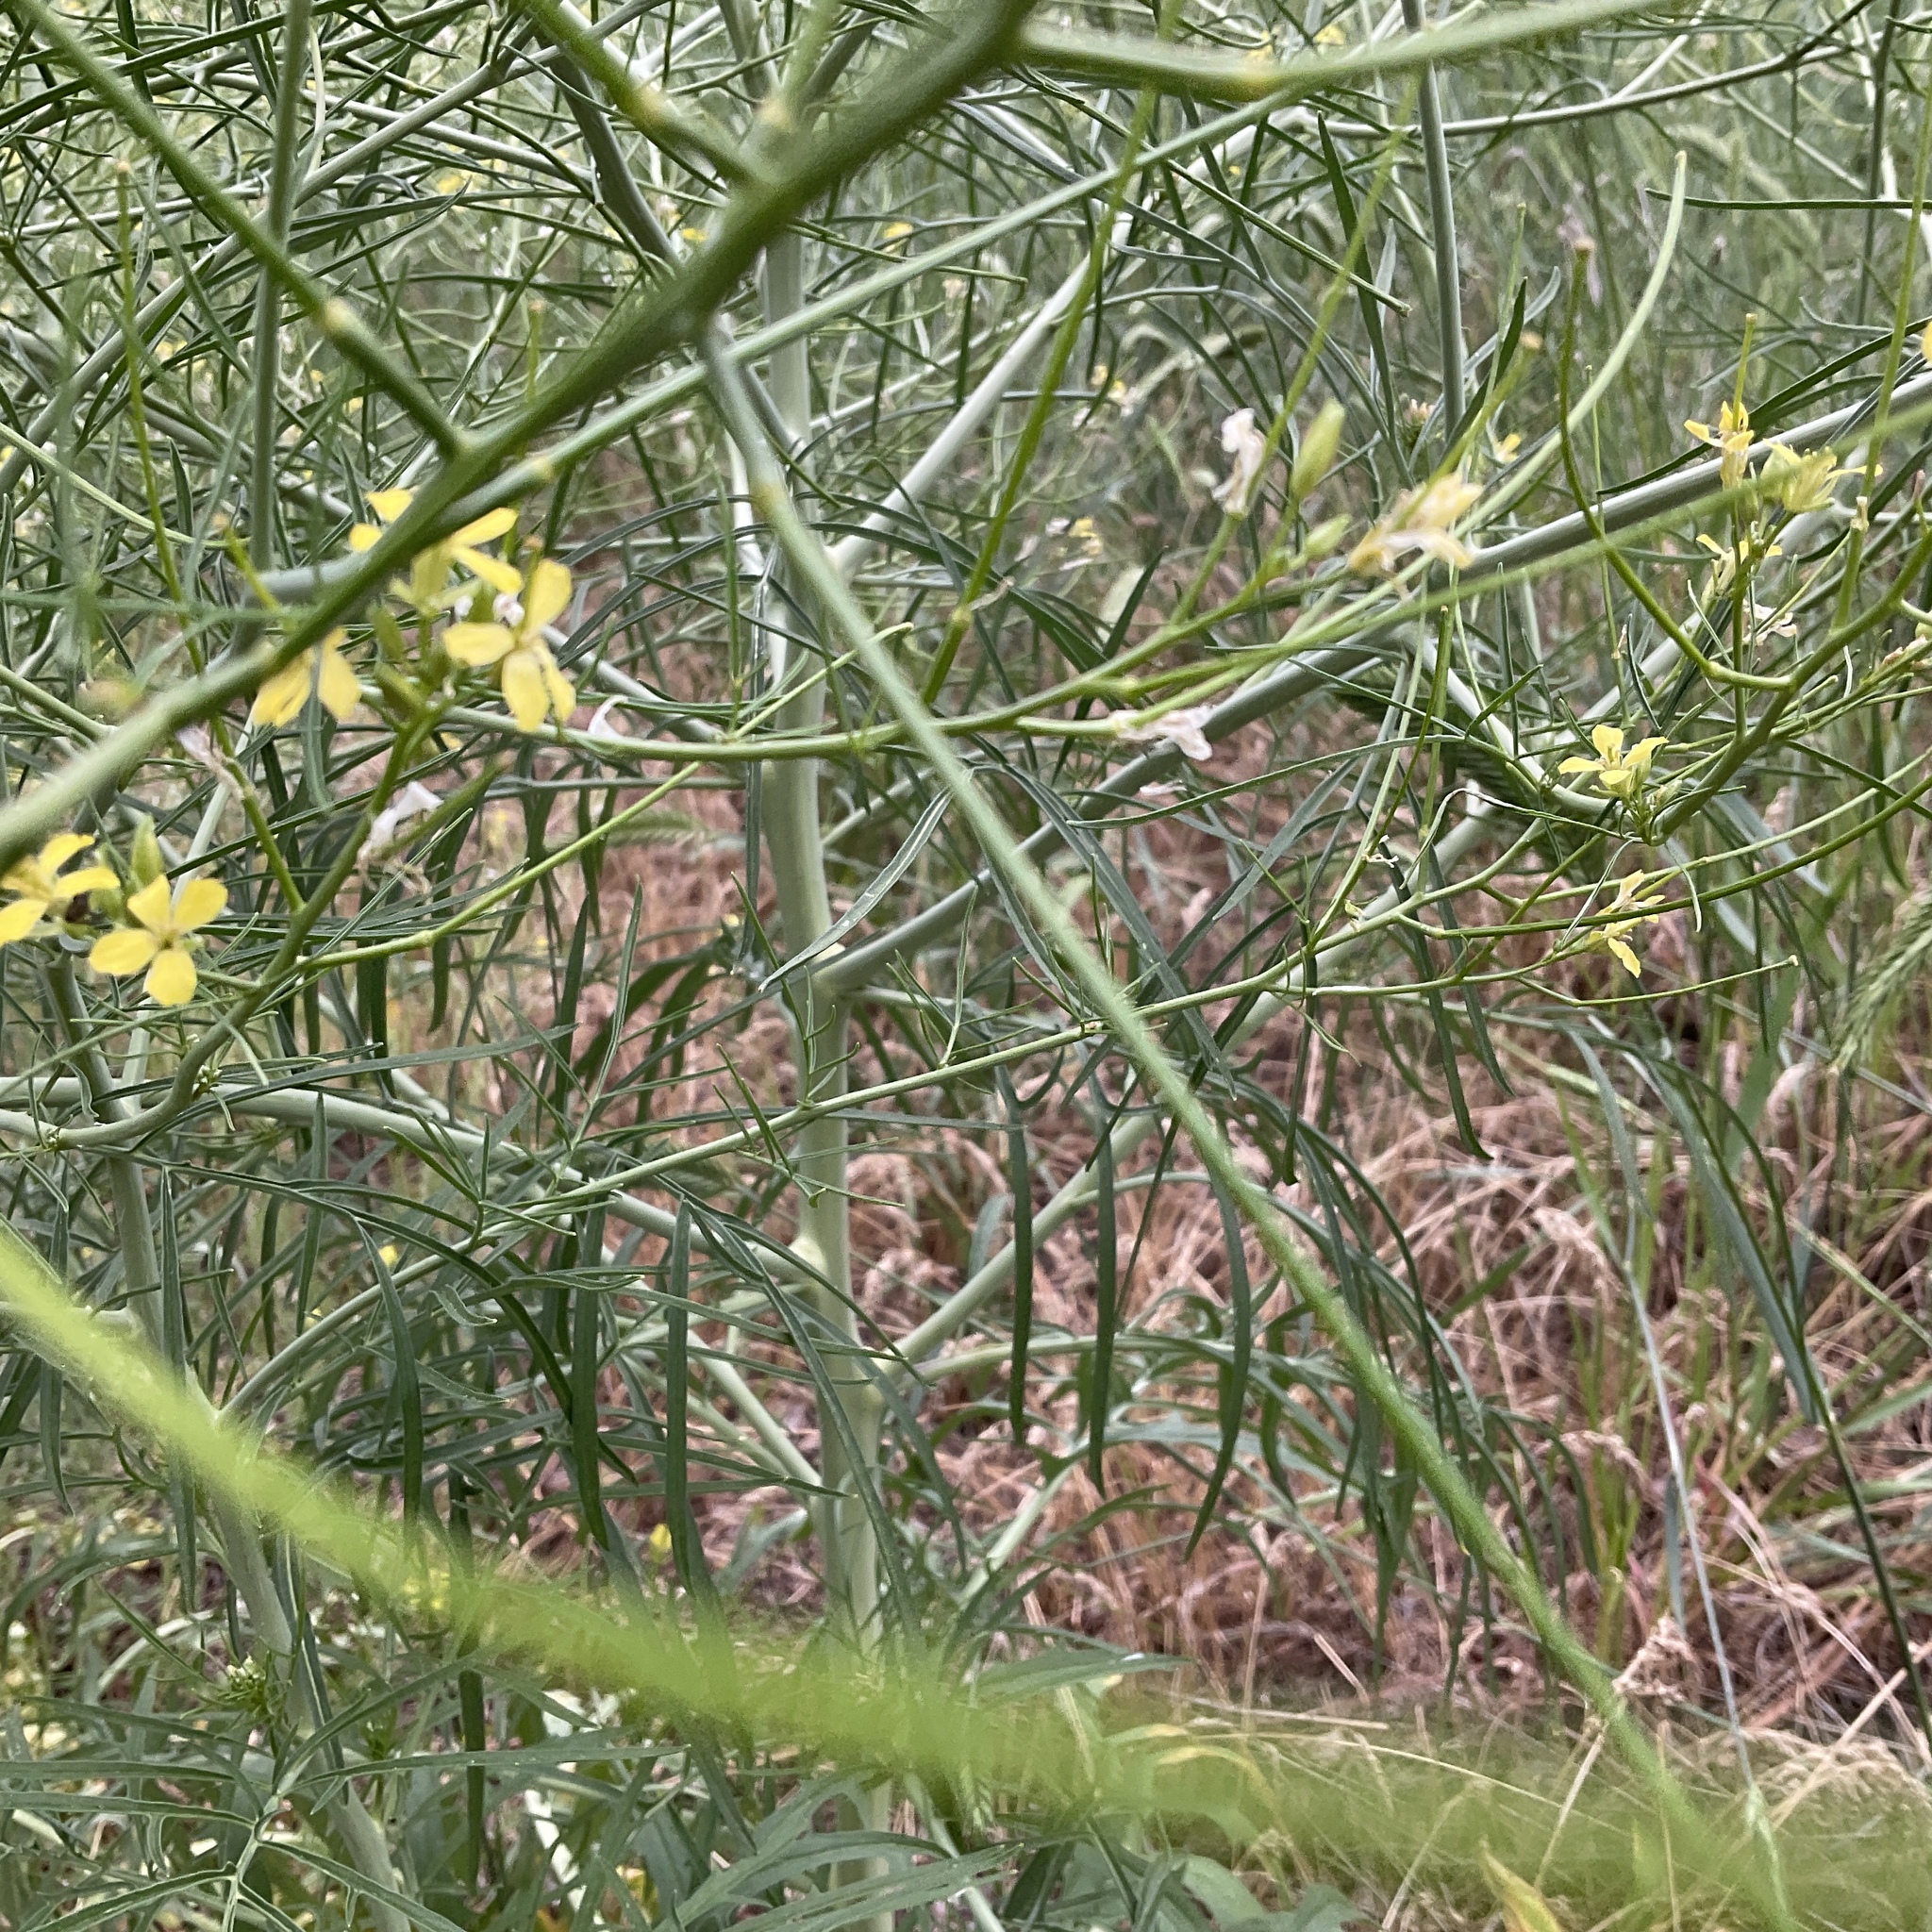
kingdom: Plantae
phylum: Tracheophyta
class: Magnoliopsida
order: Brassicales
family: Brassicaceae
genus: Sisymbrium
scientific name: Sisymbrium altissimum
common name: Tall rocket
